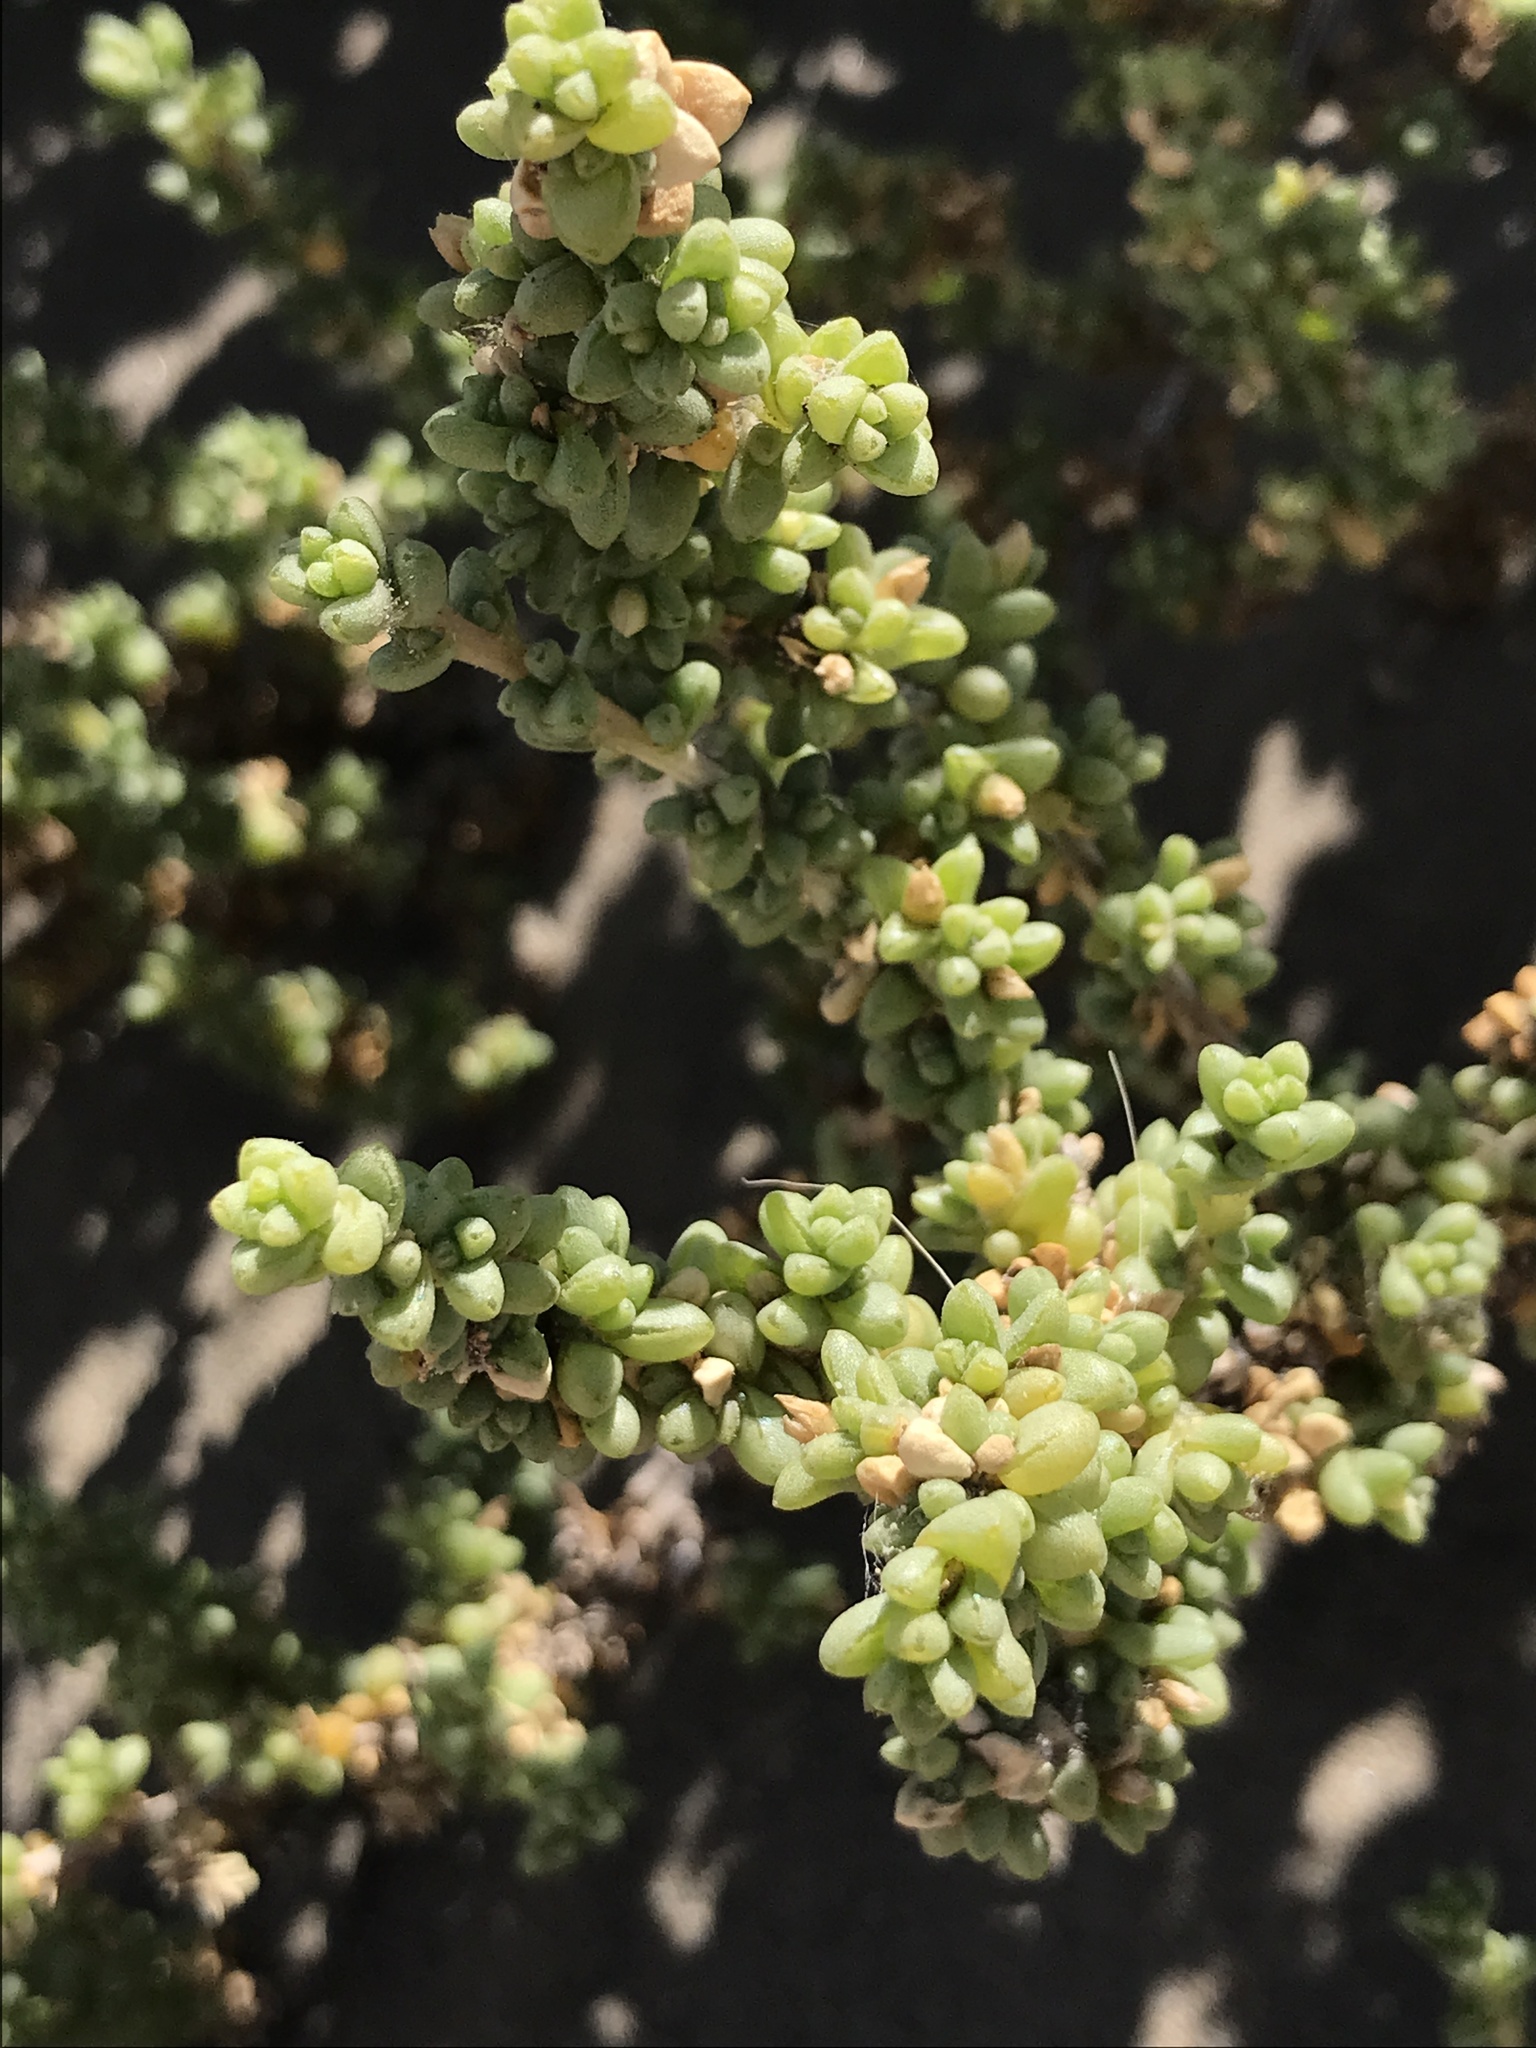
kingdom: Plantae
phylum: Tracheophyta
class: Magnoliopsida
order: Caryophyllales
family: Amaranthaceae
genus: Traganum
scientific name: Traganum moquinii
